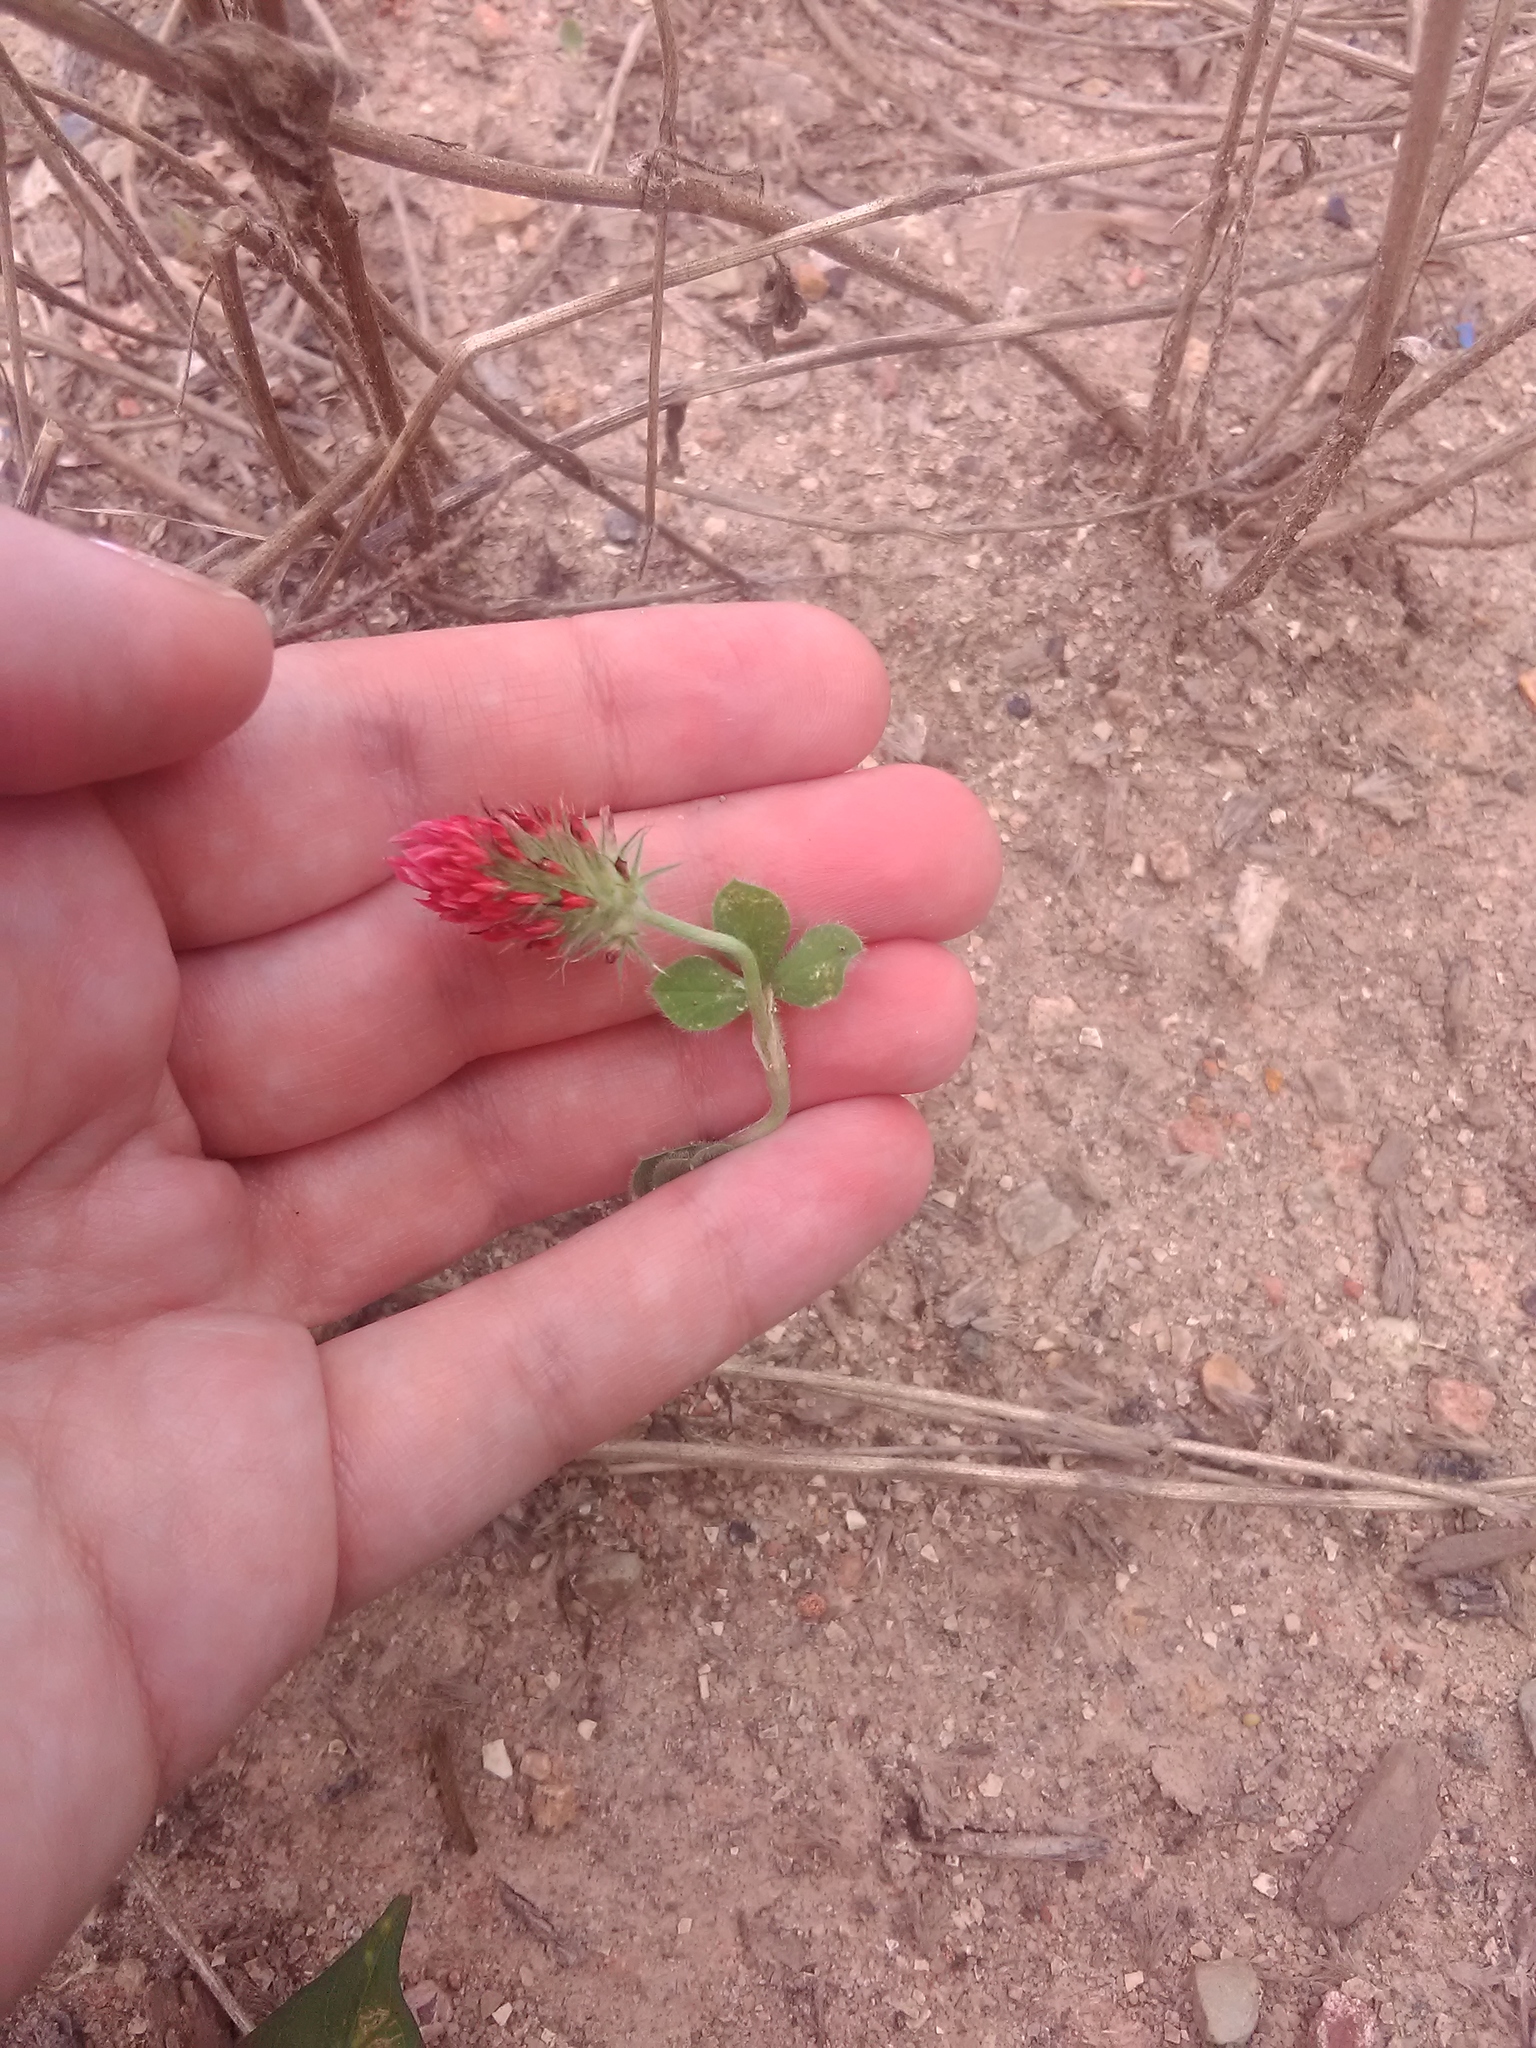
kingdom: Plantae
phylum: Tracheophyta
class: Magnoliopsida
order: Fabales
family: Fabaceae
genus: Trifolium
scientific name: Trifolium incarnatum
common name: Crimson clover
